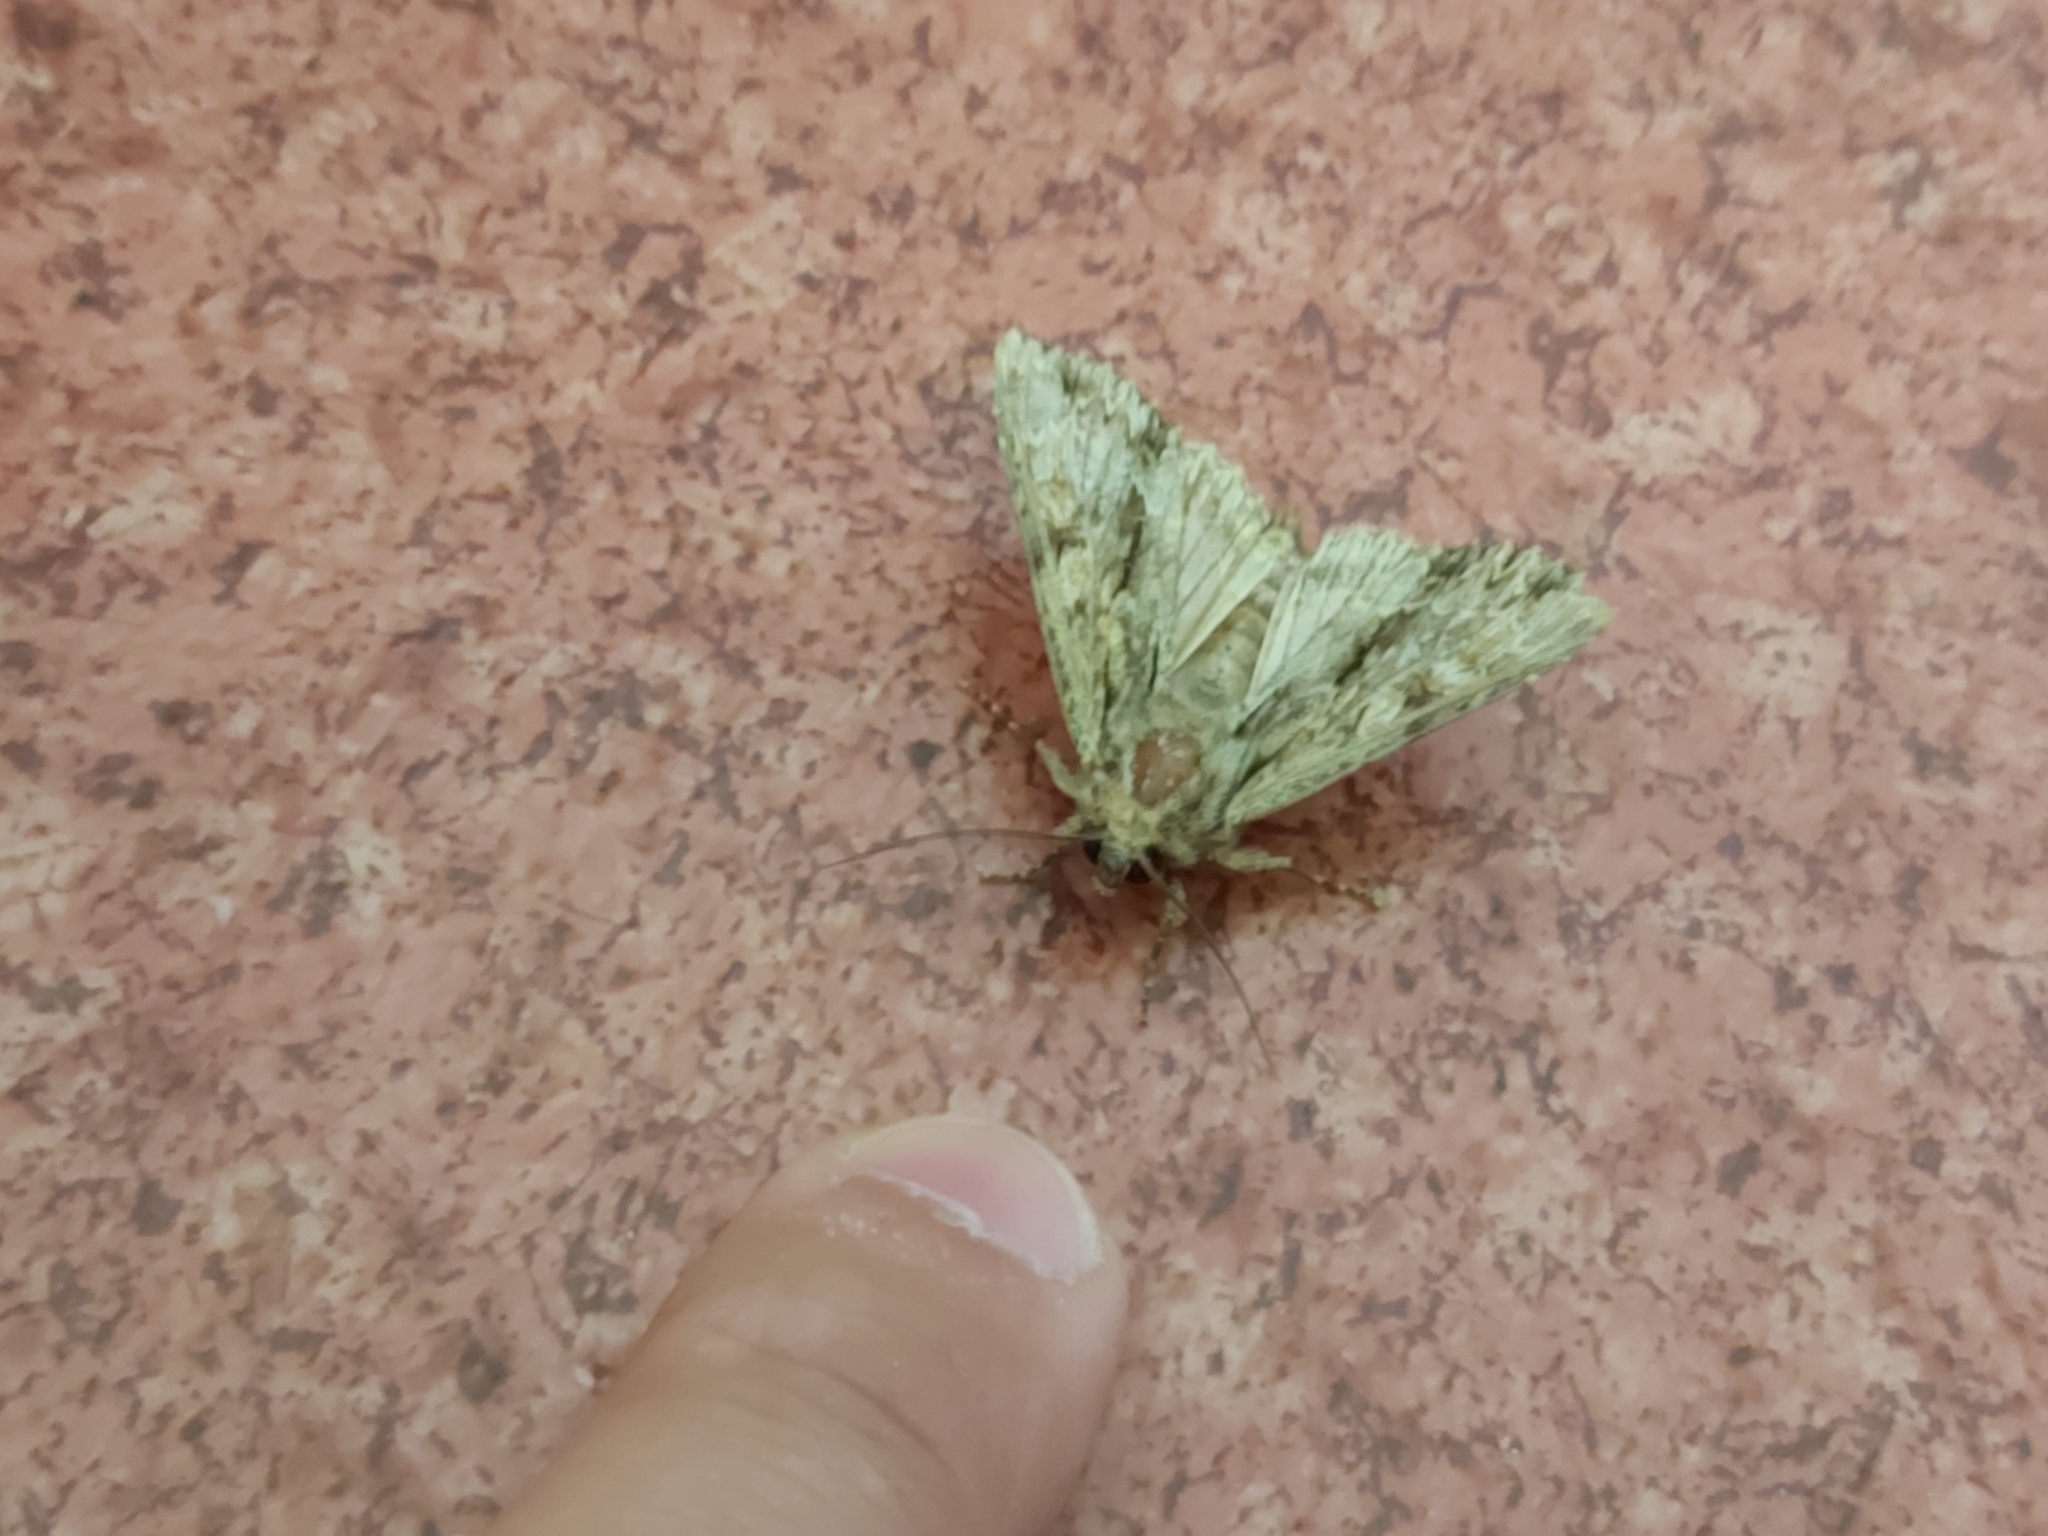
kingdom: Animalia
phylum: Arthropoda
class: Insecta
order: Lepidoptera
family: Noctuidae
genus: Apamea
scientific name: Apamea monoglypha
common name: Dark arches
